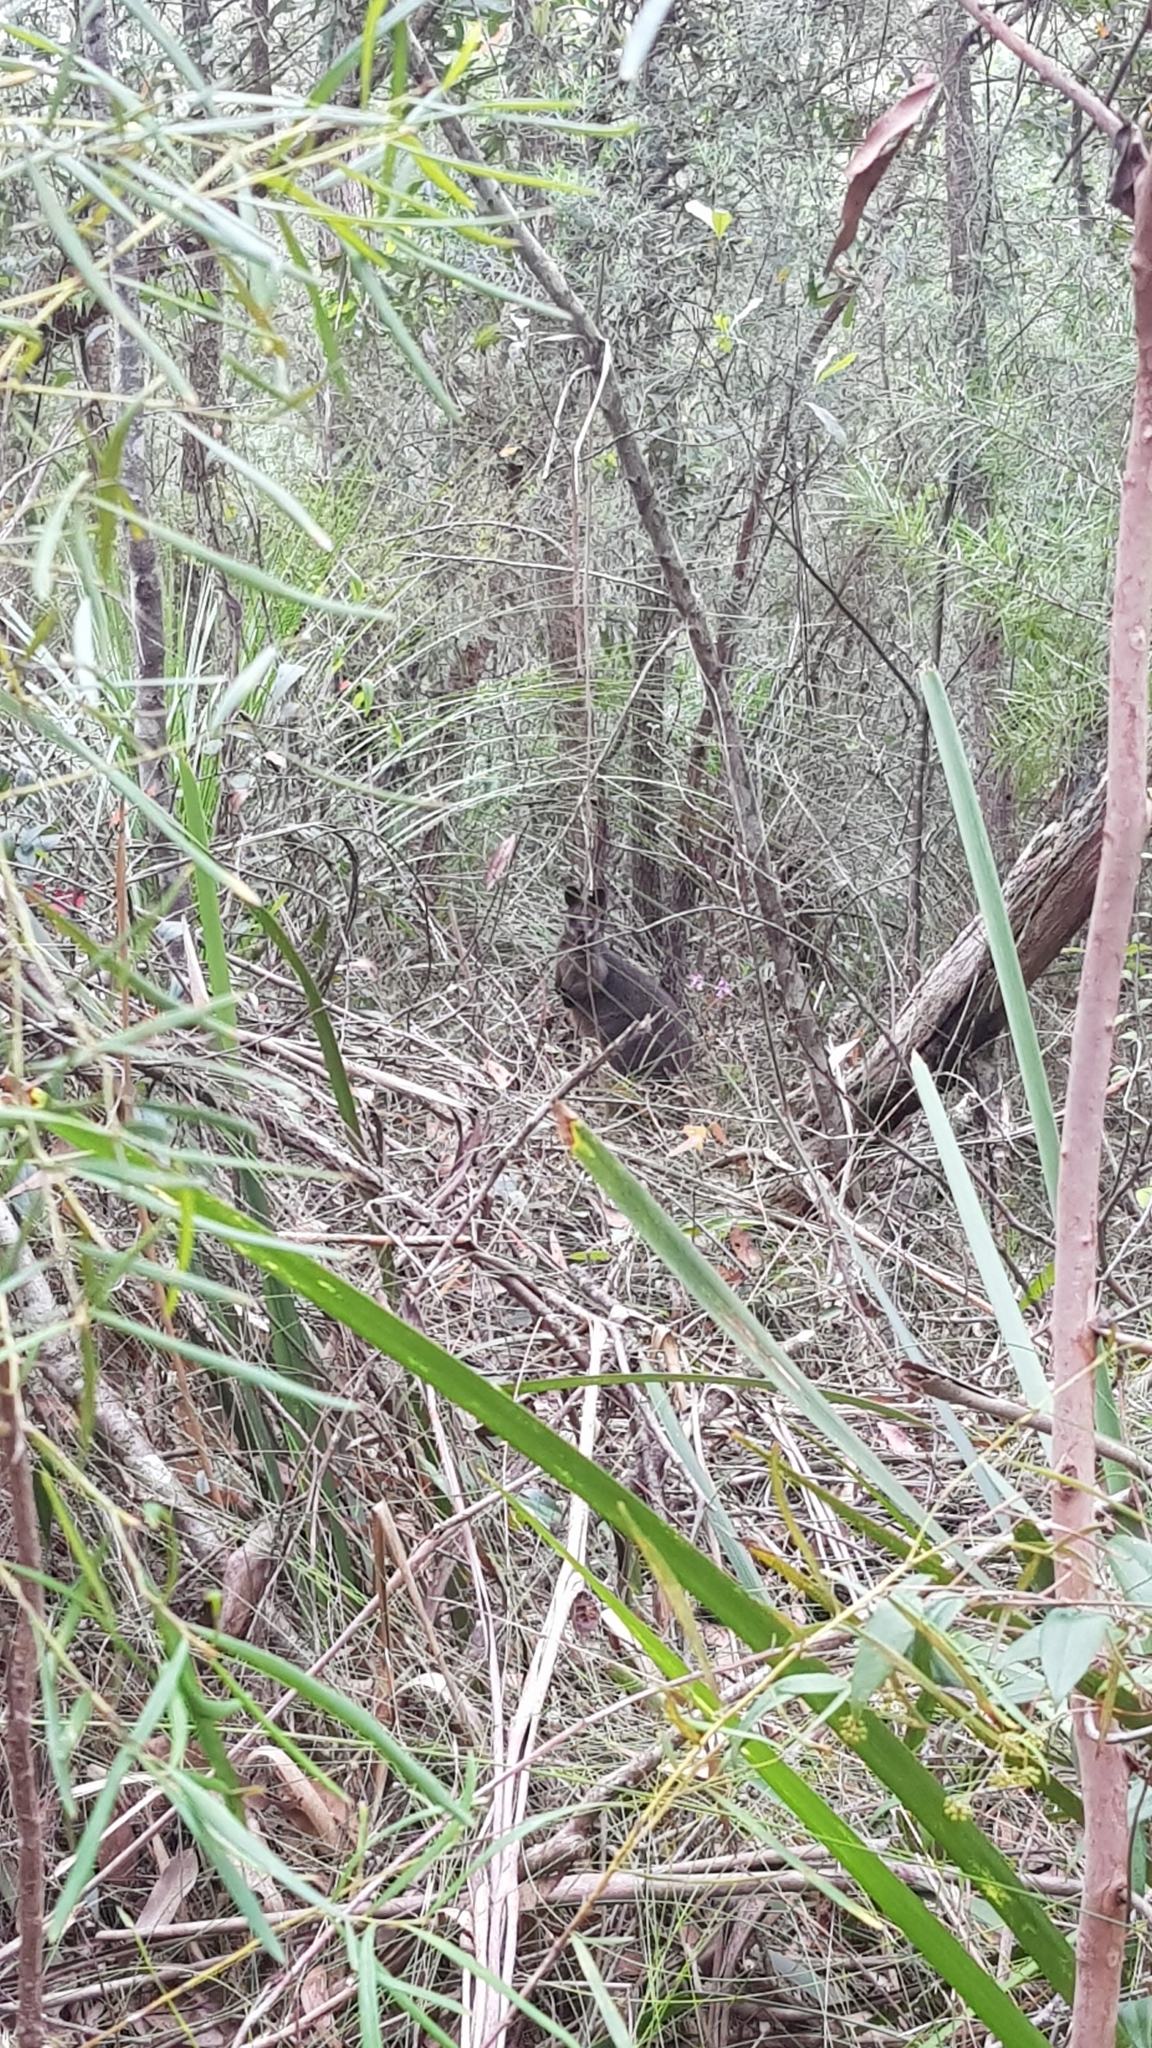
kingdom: Animalia
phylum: Chordata
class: Mammalia
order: Diprotodontia
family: Macropodidae
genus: Wallabia
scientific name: Wallabia bicolor
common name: Swamp wallaby
